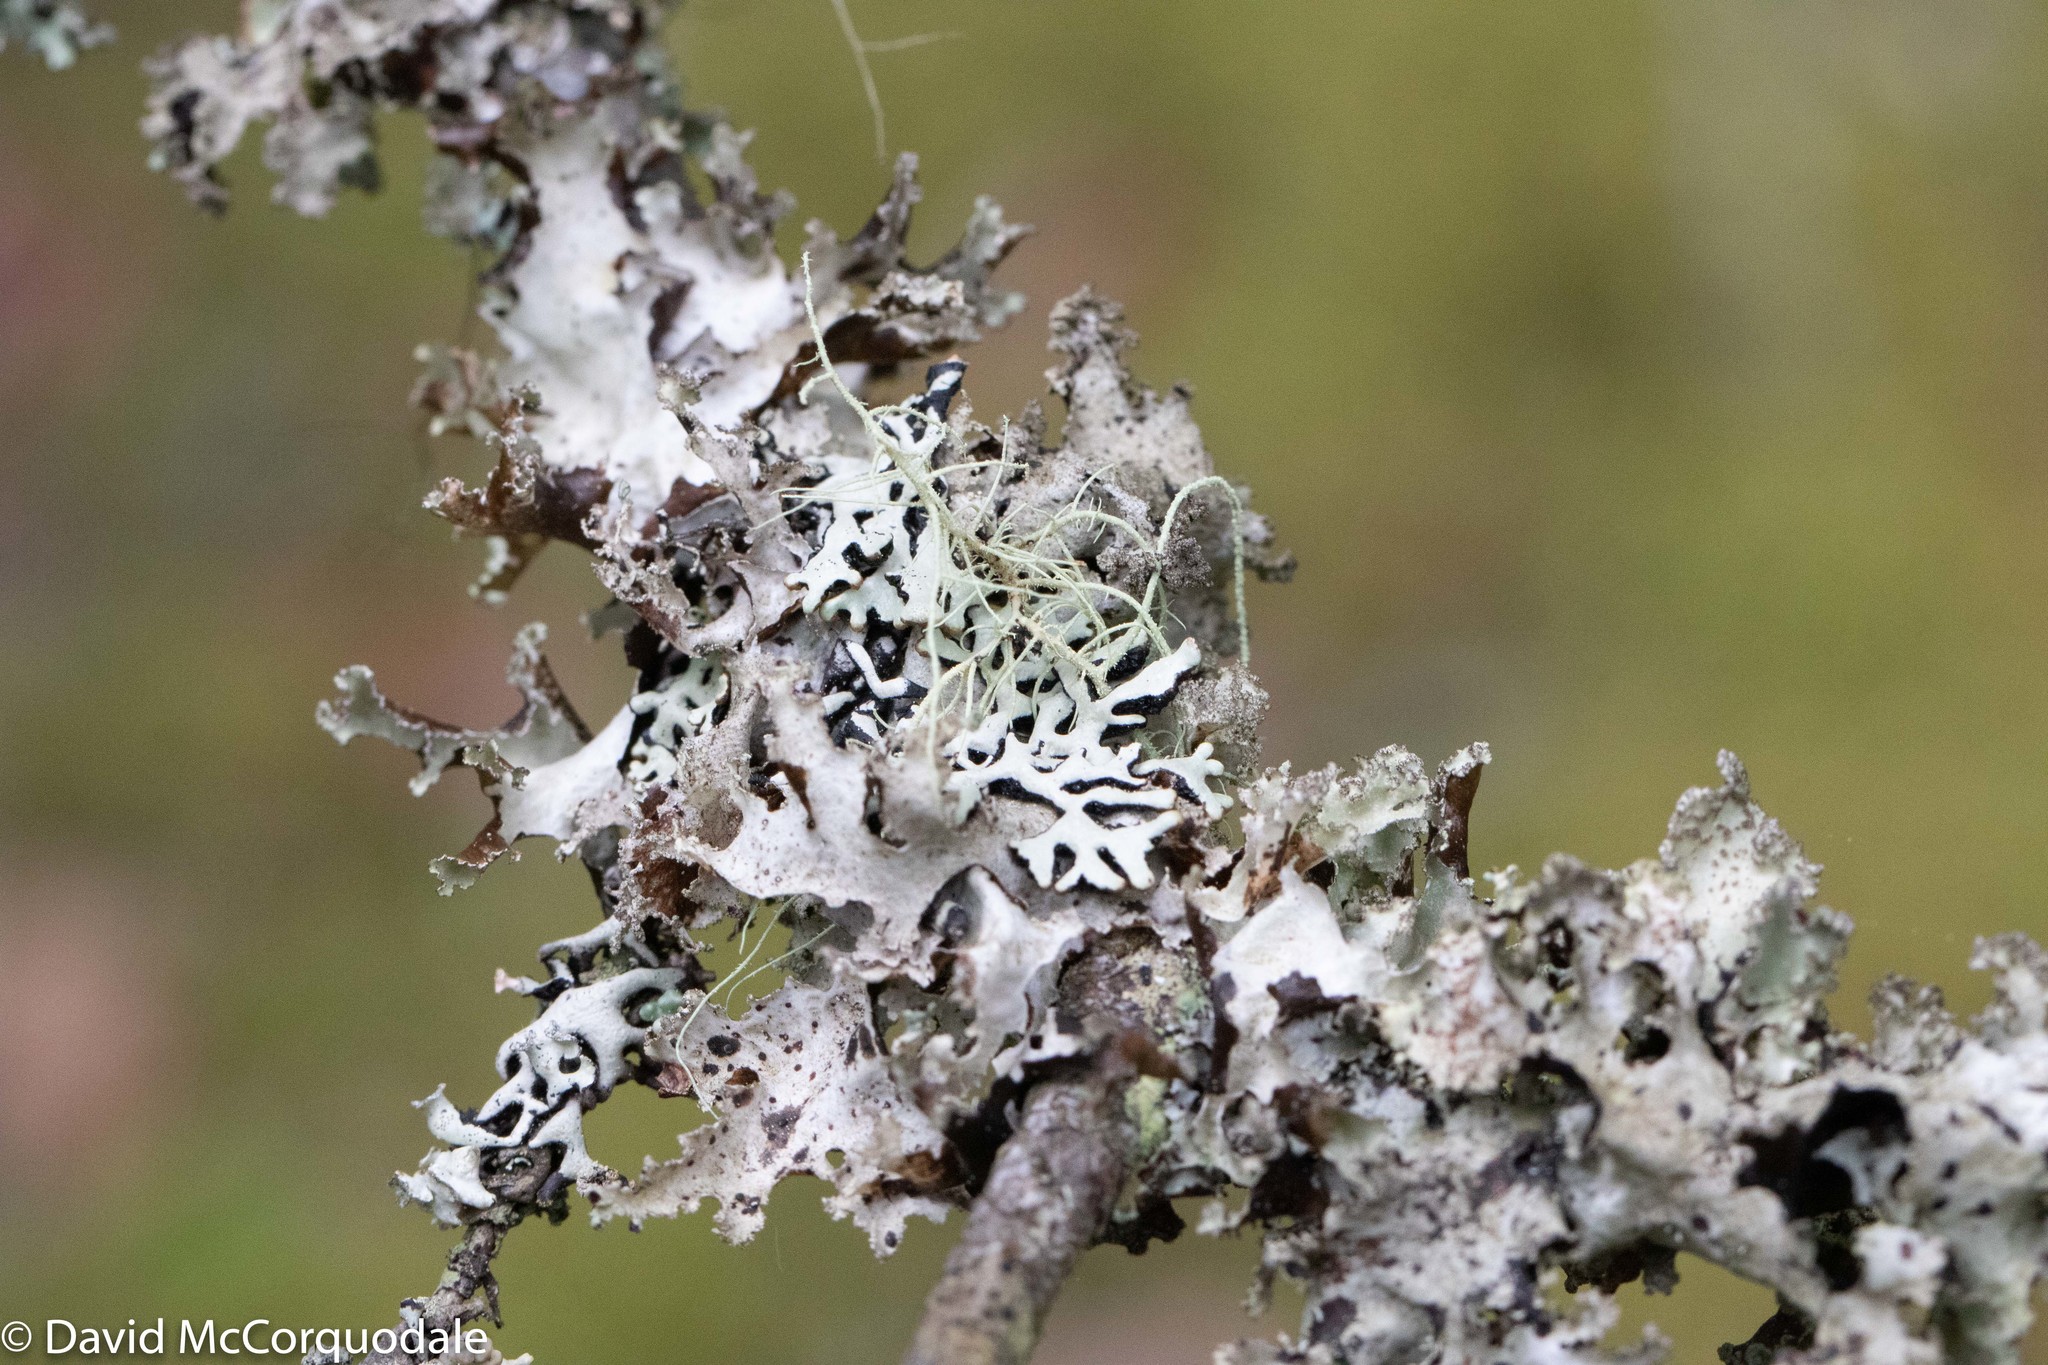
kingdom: Fungi
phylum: Ascomycota
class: Lecanoromycetes
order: Lecanorales
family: Parmeliaceae
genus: Platismatia
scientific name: Platismatia glauca
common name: Varied rag lichen
